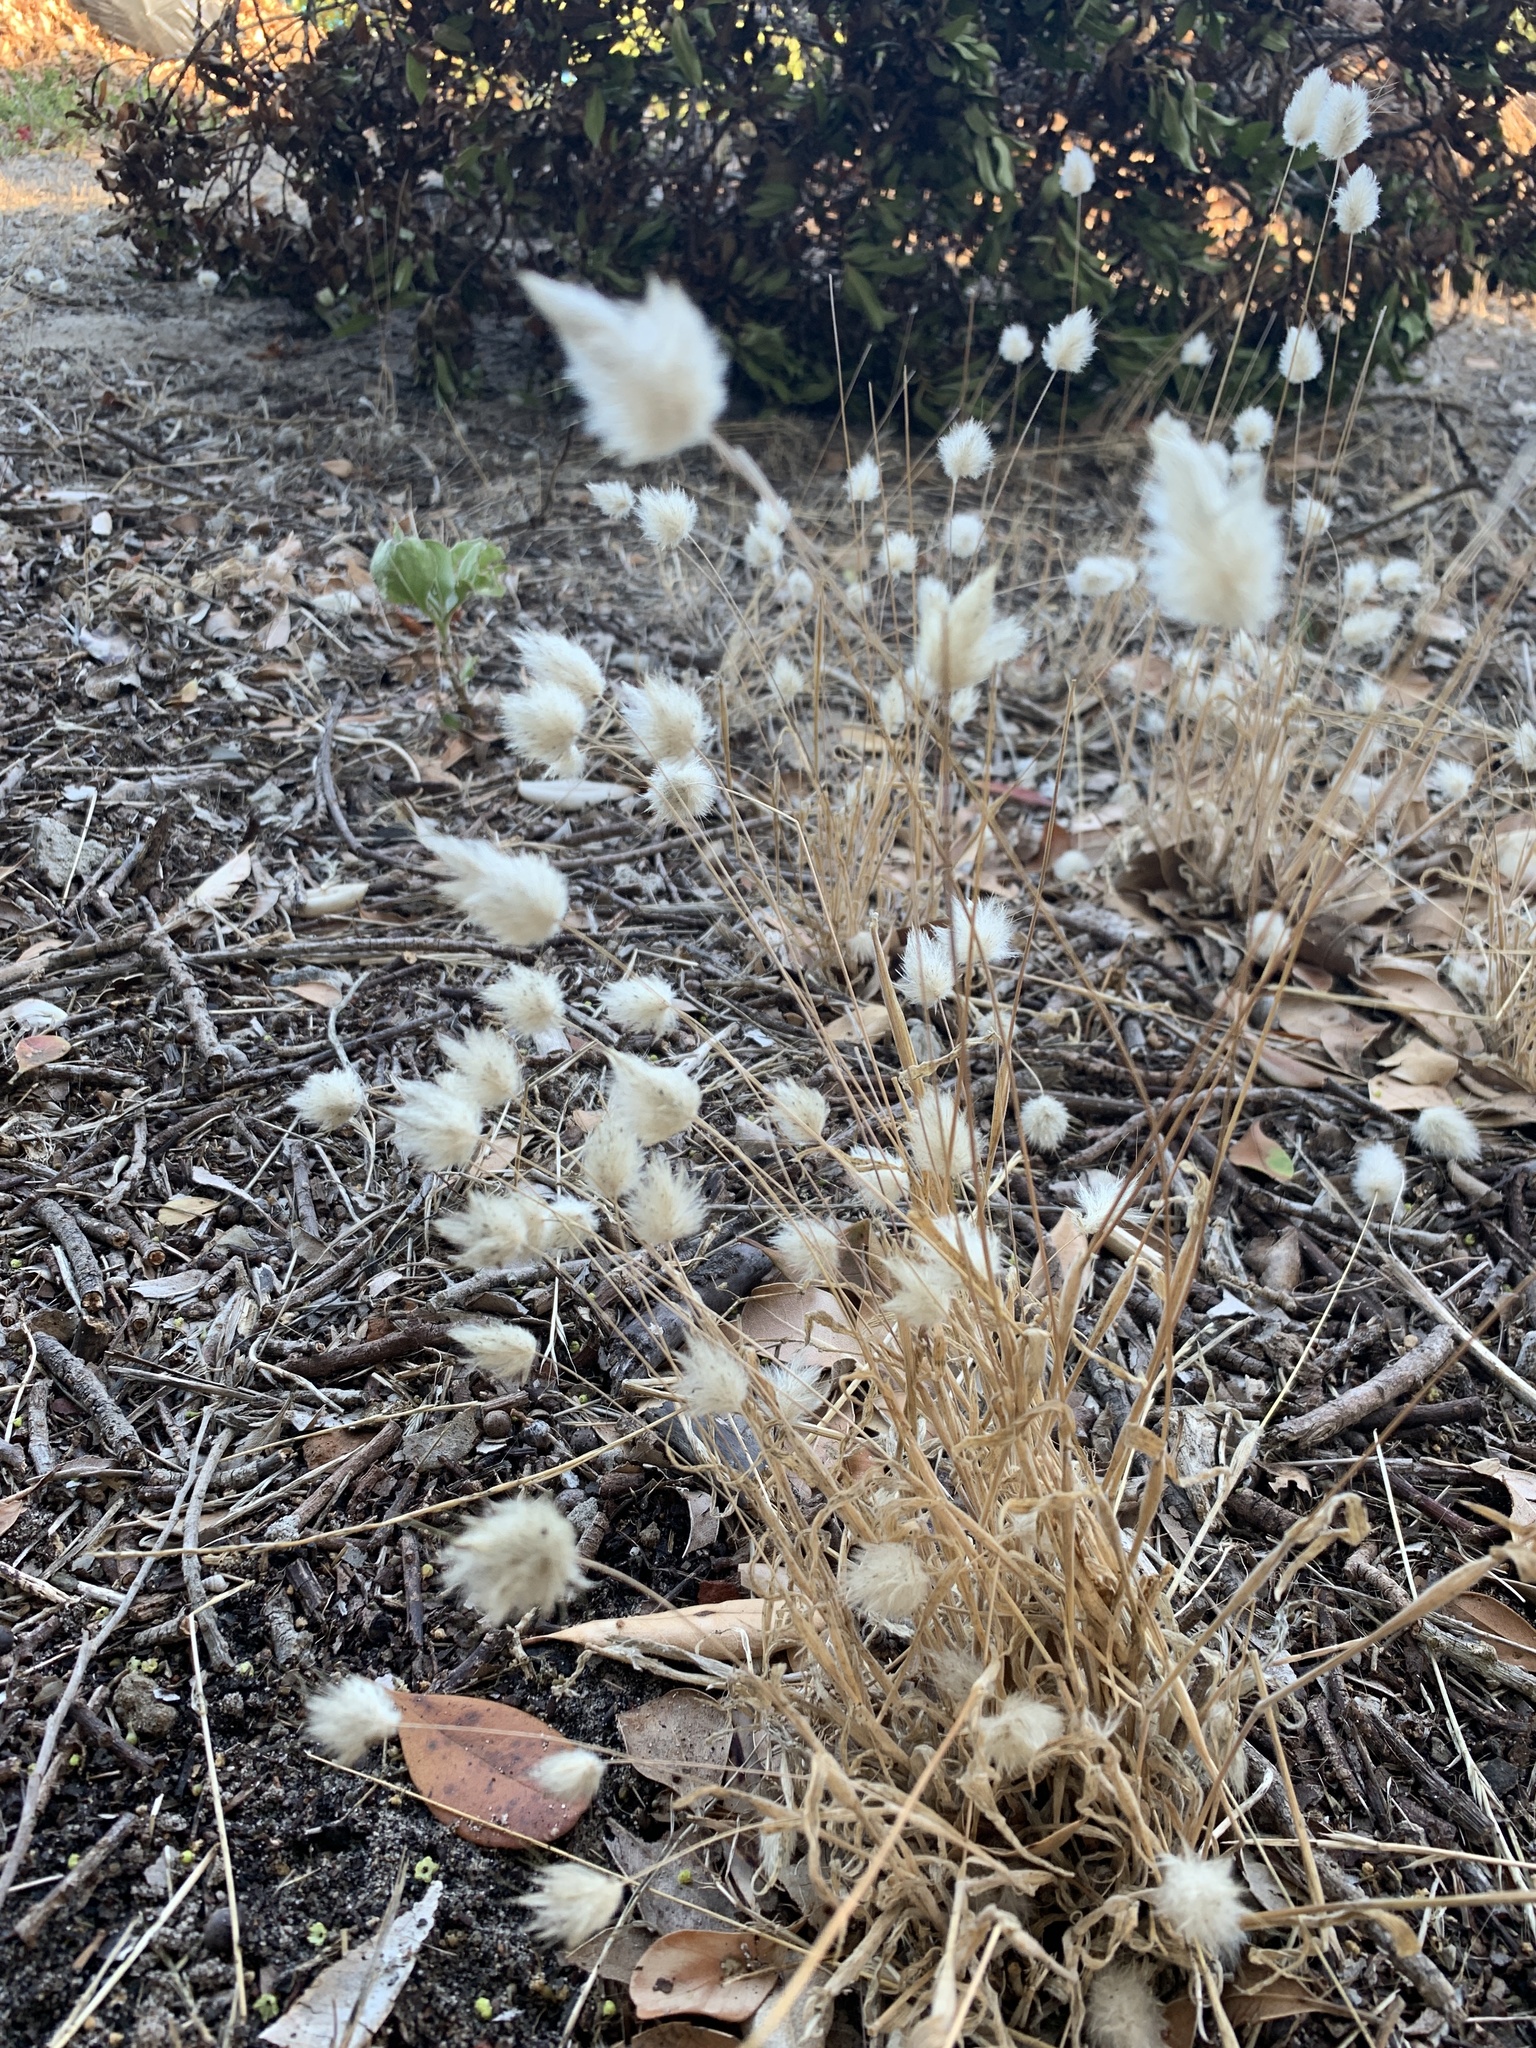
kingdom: Plantae
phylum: Tracheophyta
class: Liliopsida
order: Poales
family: Poaceae
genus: Lagurus
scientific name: Lagurus ovatus
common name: Hare's-tail
